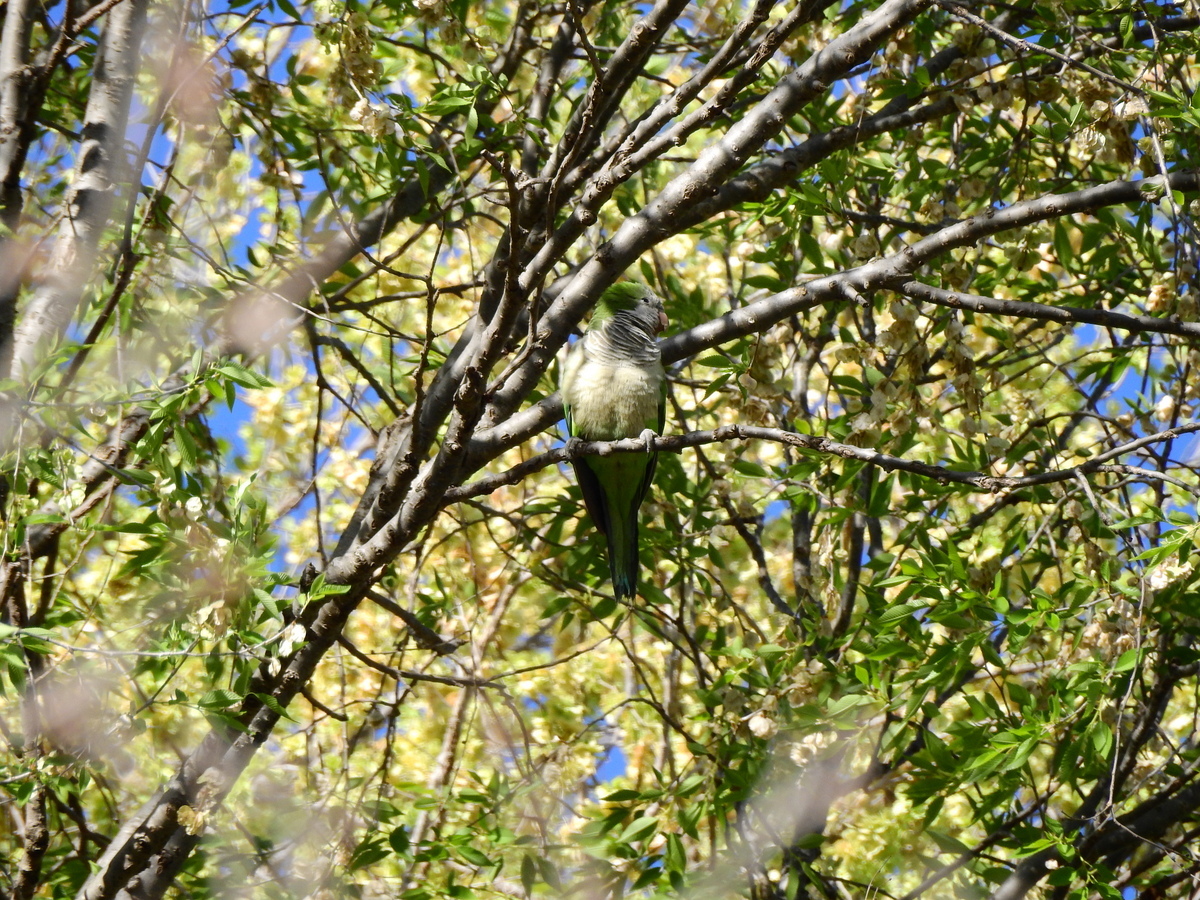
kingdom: Animalia
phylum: Chordata
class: Aves
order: Psittaciformes
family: Psittacidae
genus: Myiopsitta
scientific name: Myiopsitta monachus
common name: Monk parakeet
